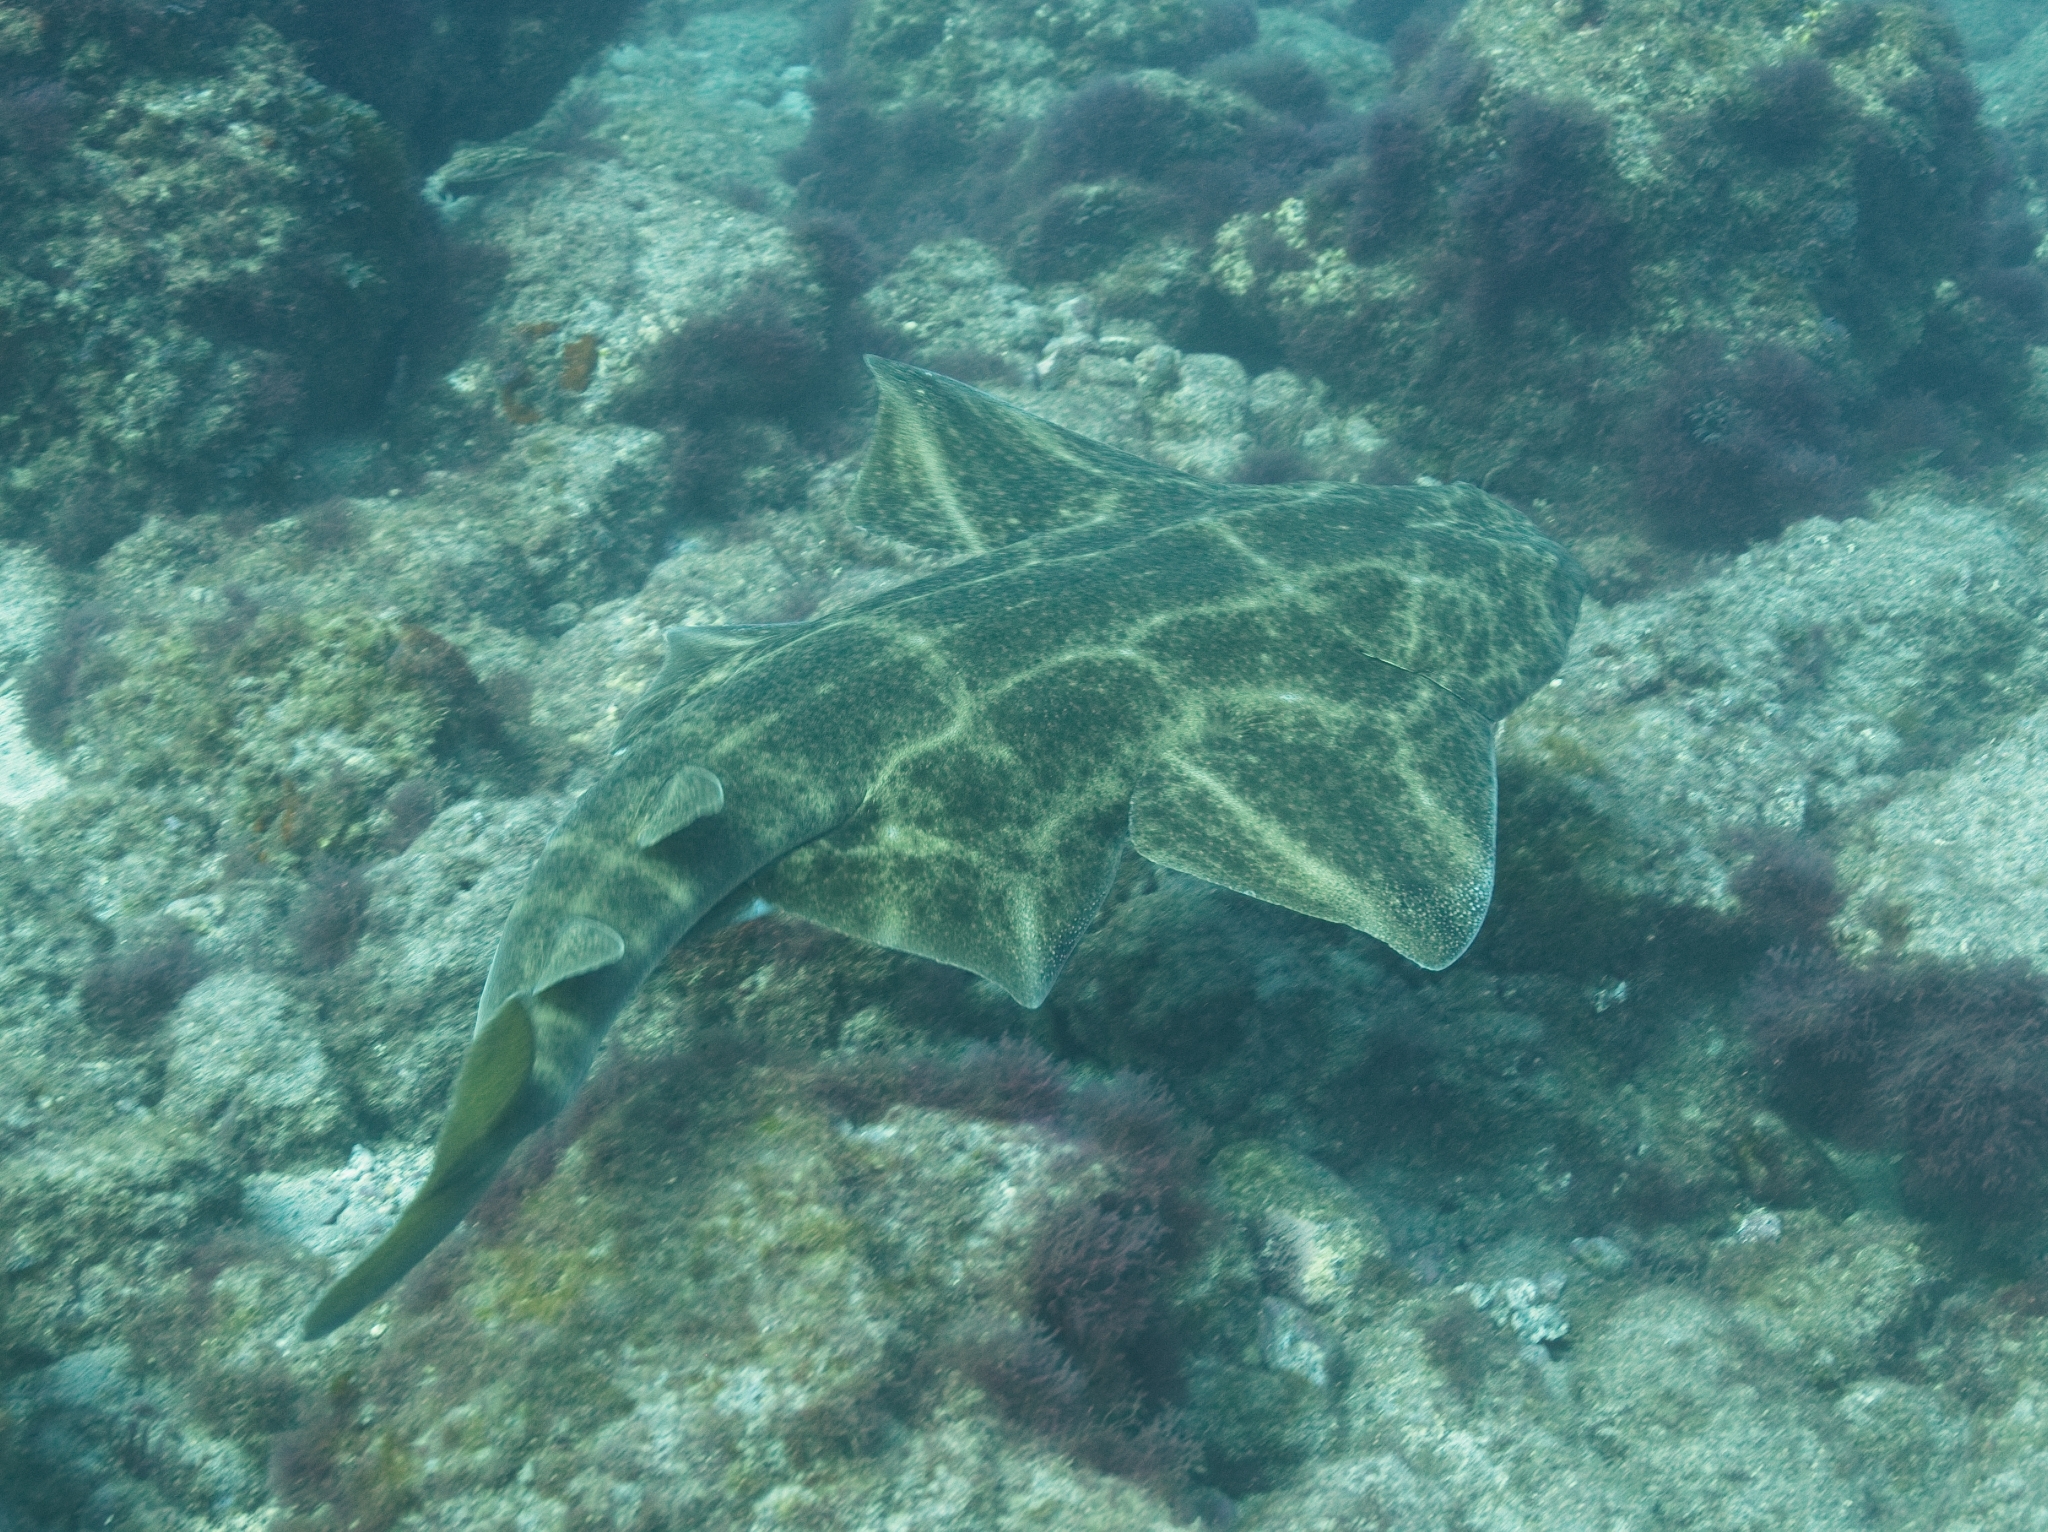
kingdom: Animalia
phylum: Chordata
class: Elasmobranchii
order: Squatiniformes
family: Squatinidae
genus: Squatina
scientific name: Squatina squatina
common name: Angel shark
